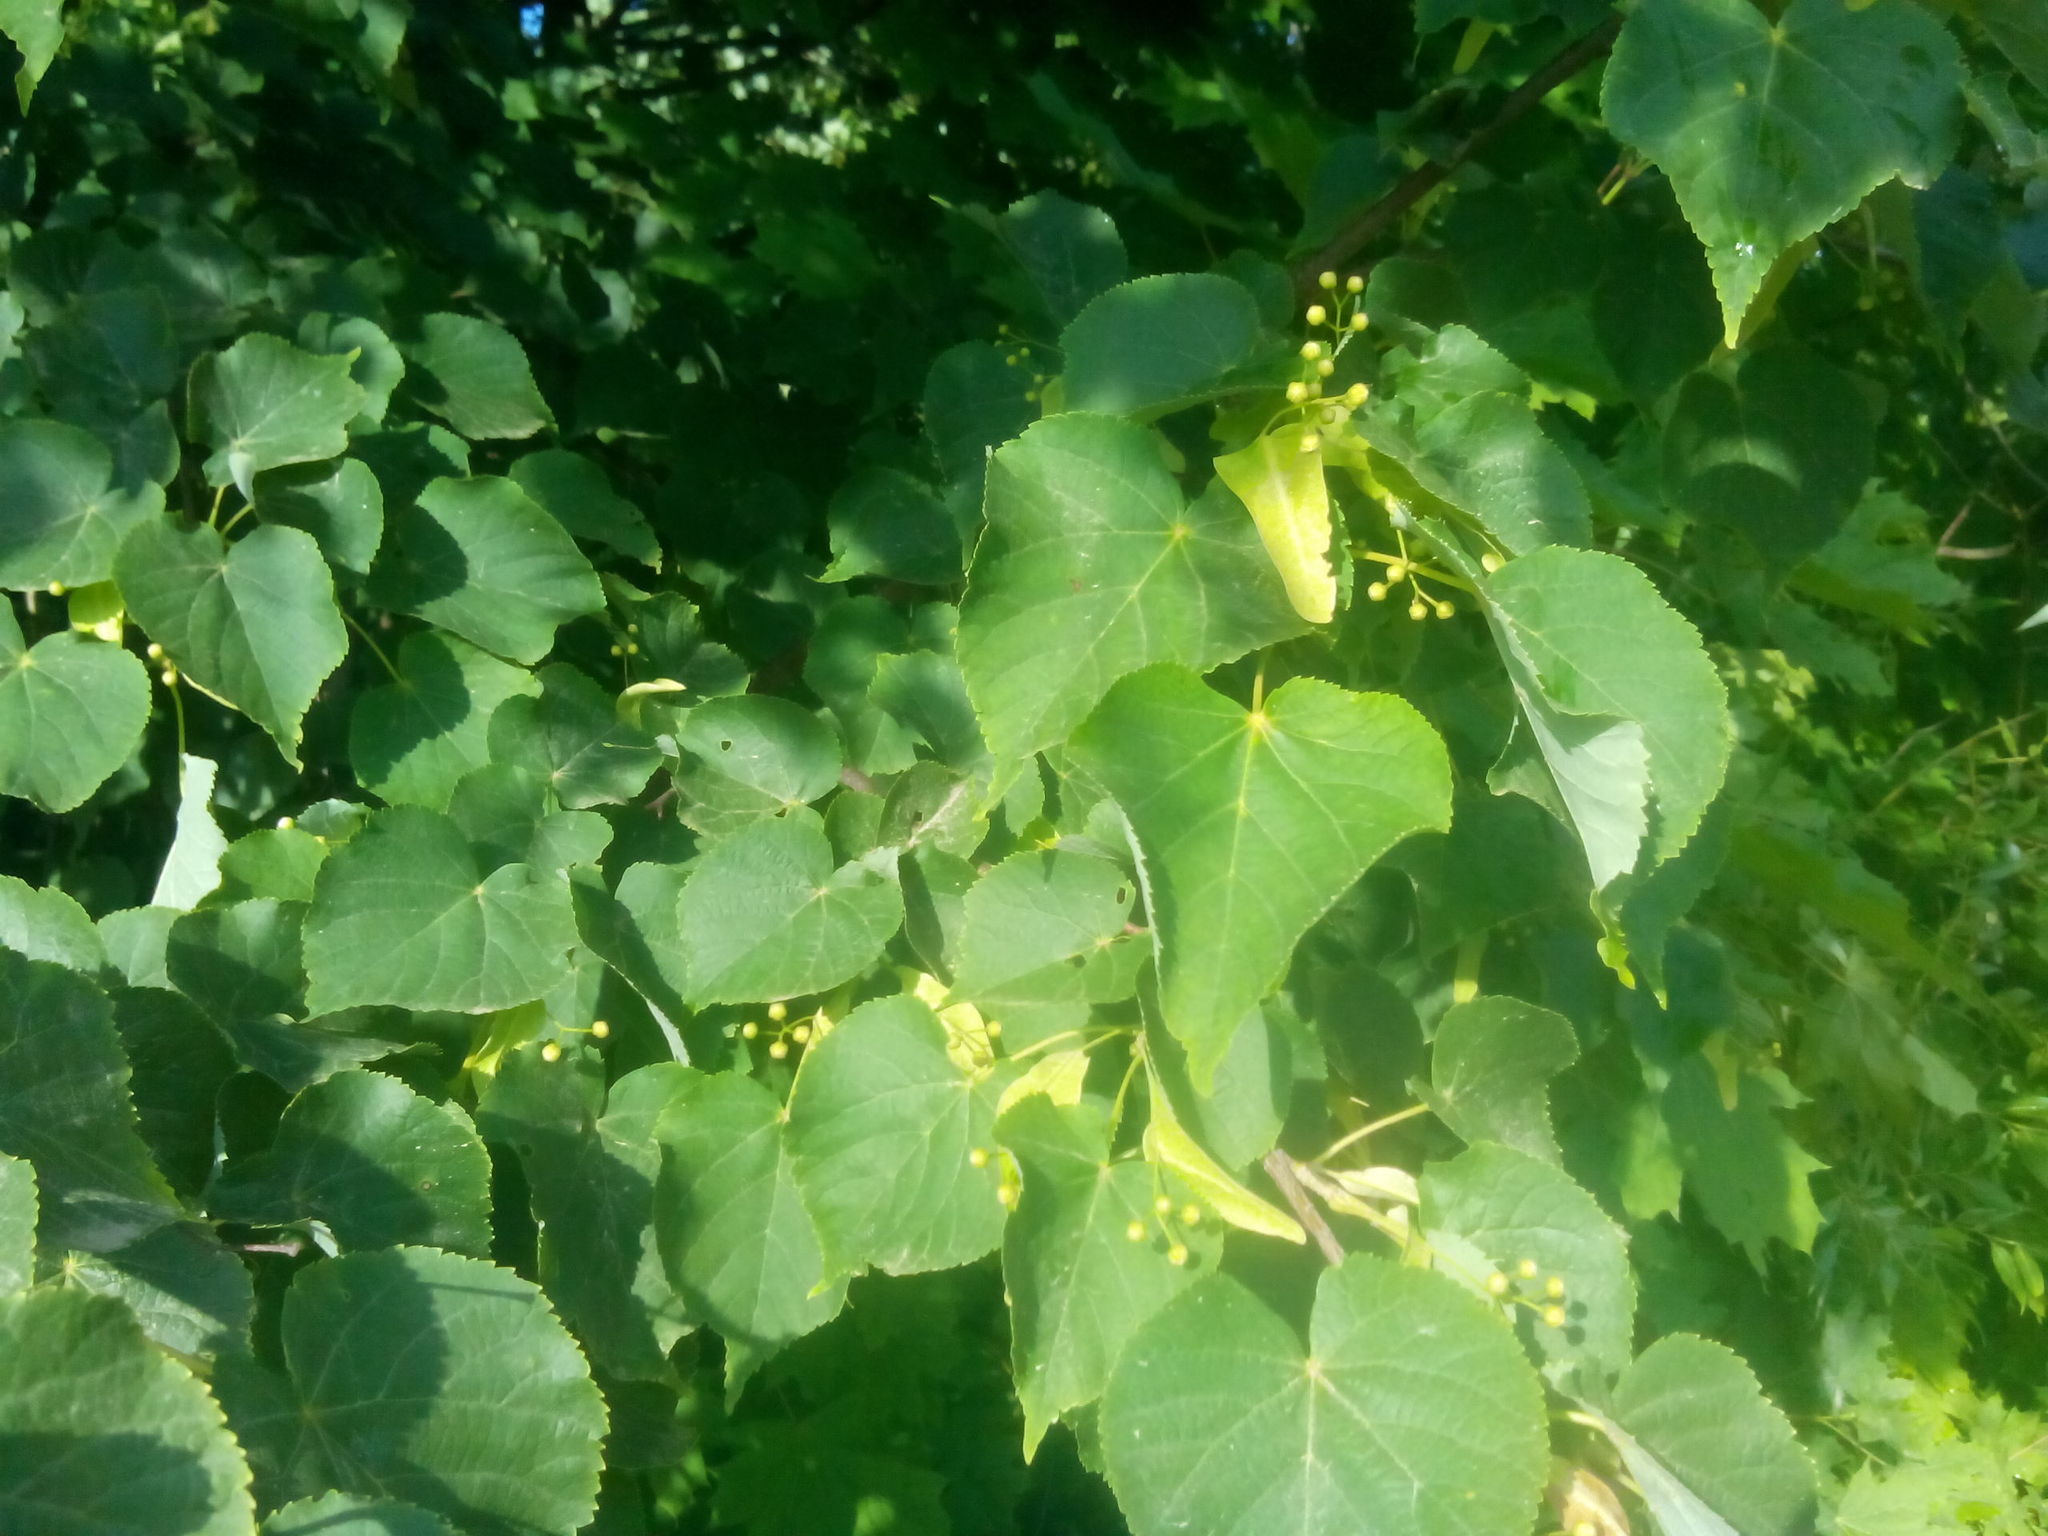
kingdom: Plantae
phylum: Tracheophyta
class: Magnoliopsida
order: Malvales
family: Malvaceae
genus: Tilia
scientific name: Tilia cordata
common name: Small-leaved lime
